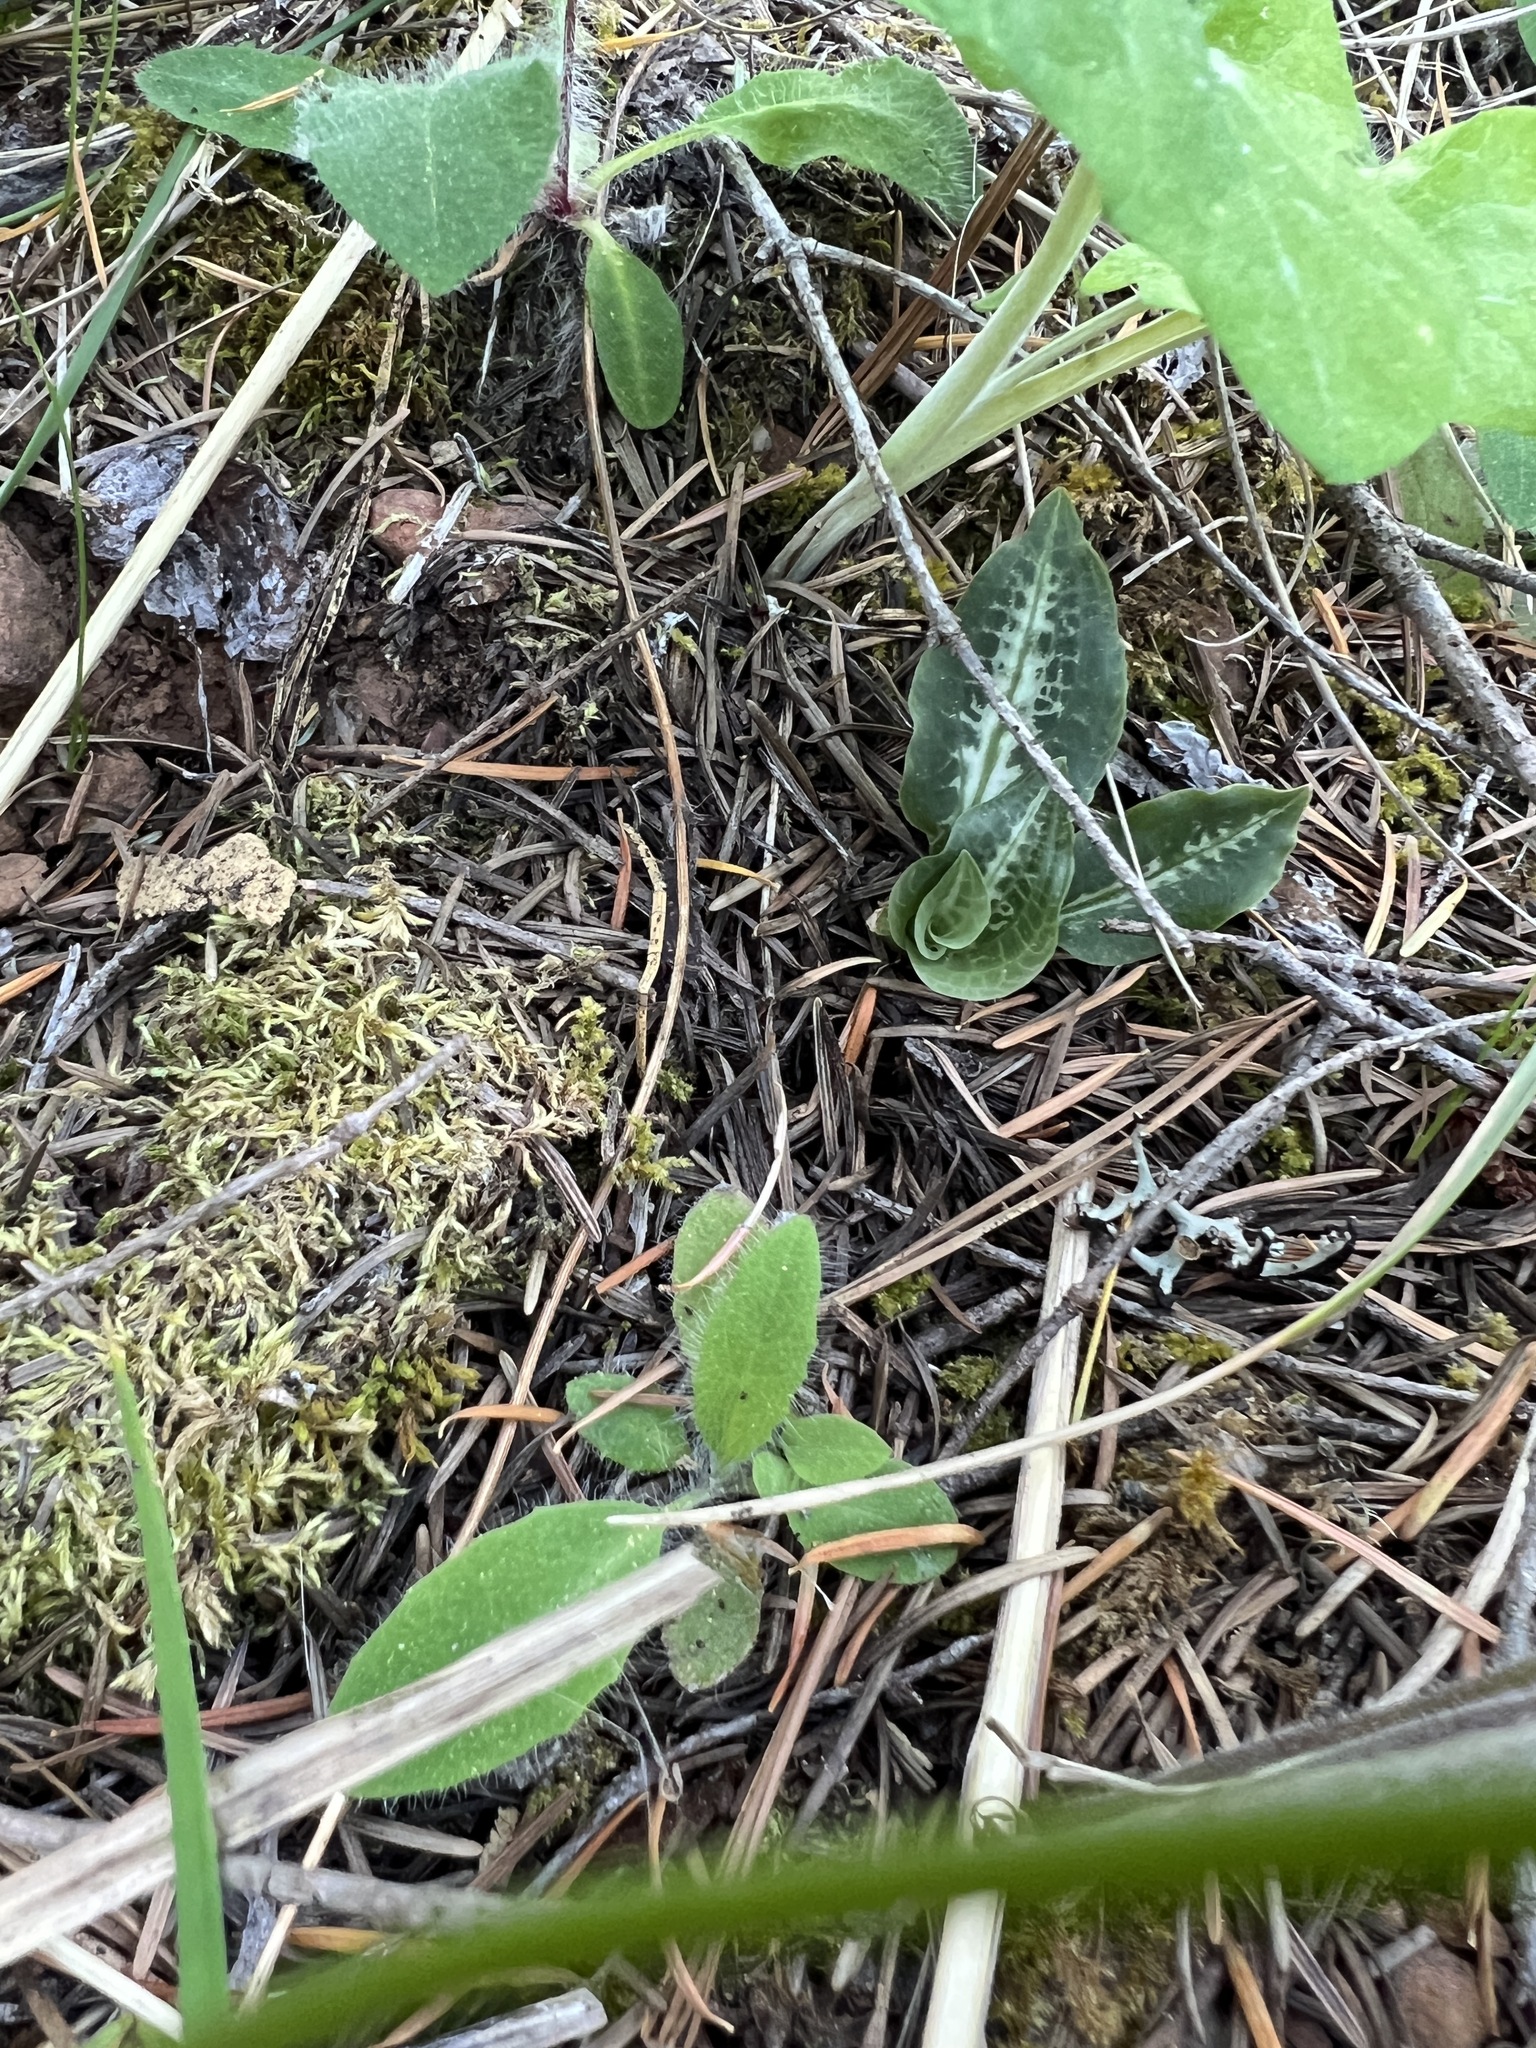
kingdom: Plantae
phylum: Tracheophyta
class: Liliopsida
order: Asparagales
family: Orchidaceae
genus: Goodyera
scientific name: Goodyera oblongifolia
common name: Giant rattlesnake-plantain
